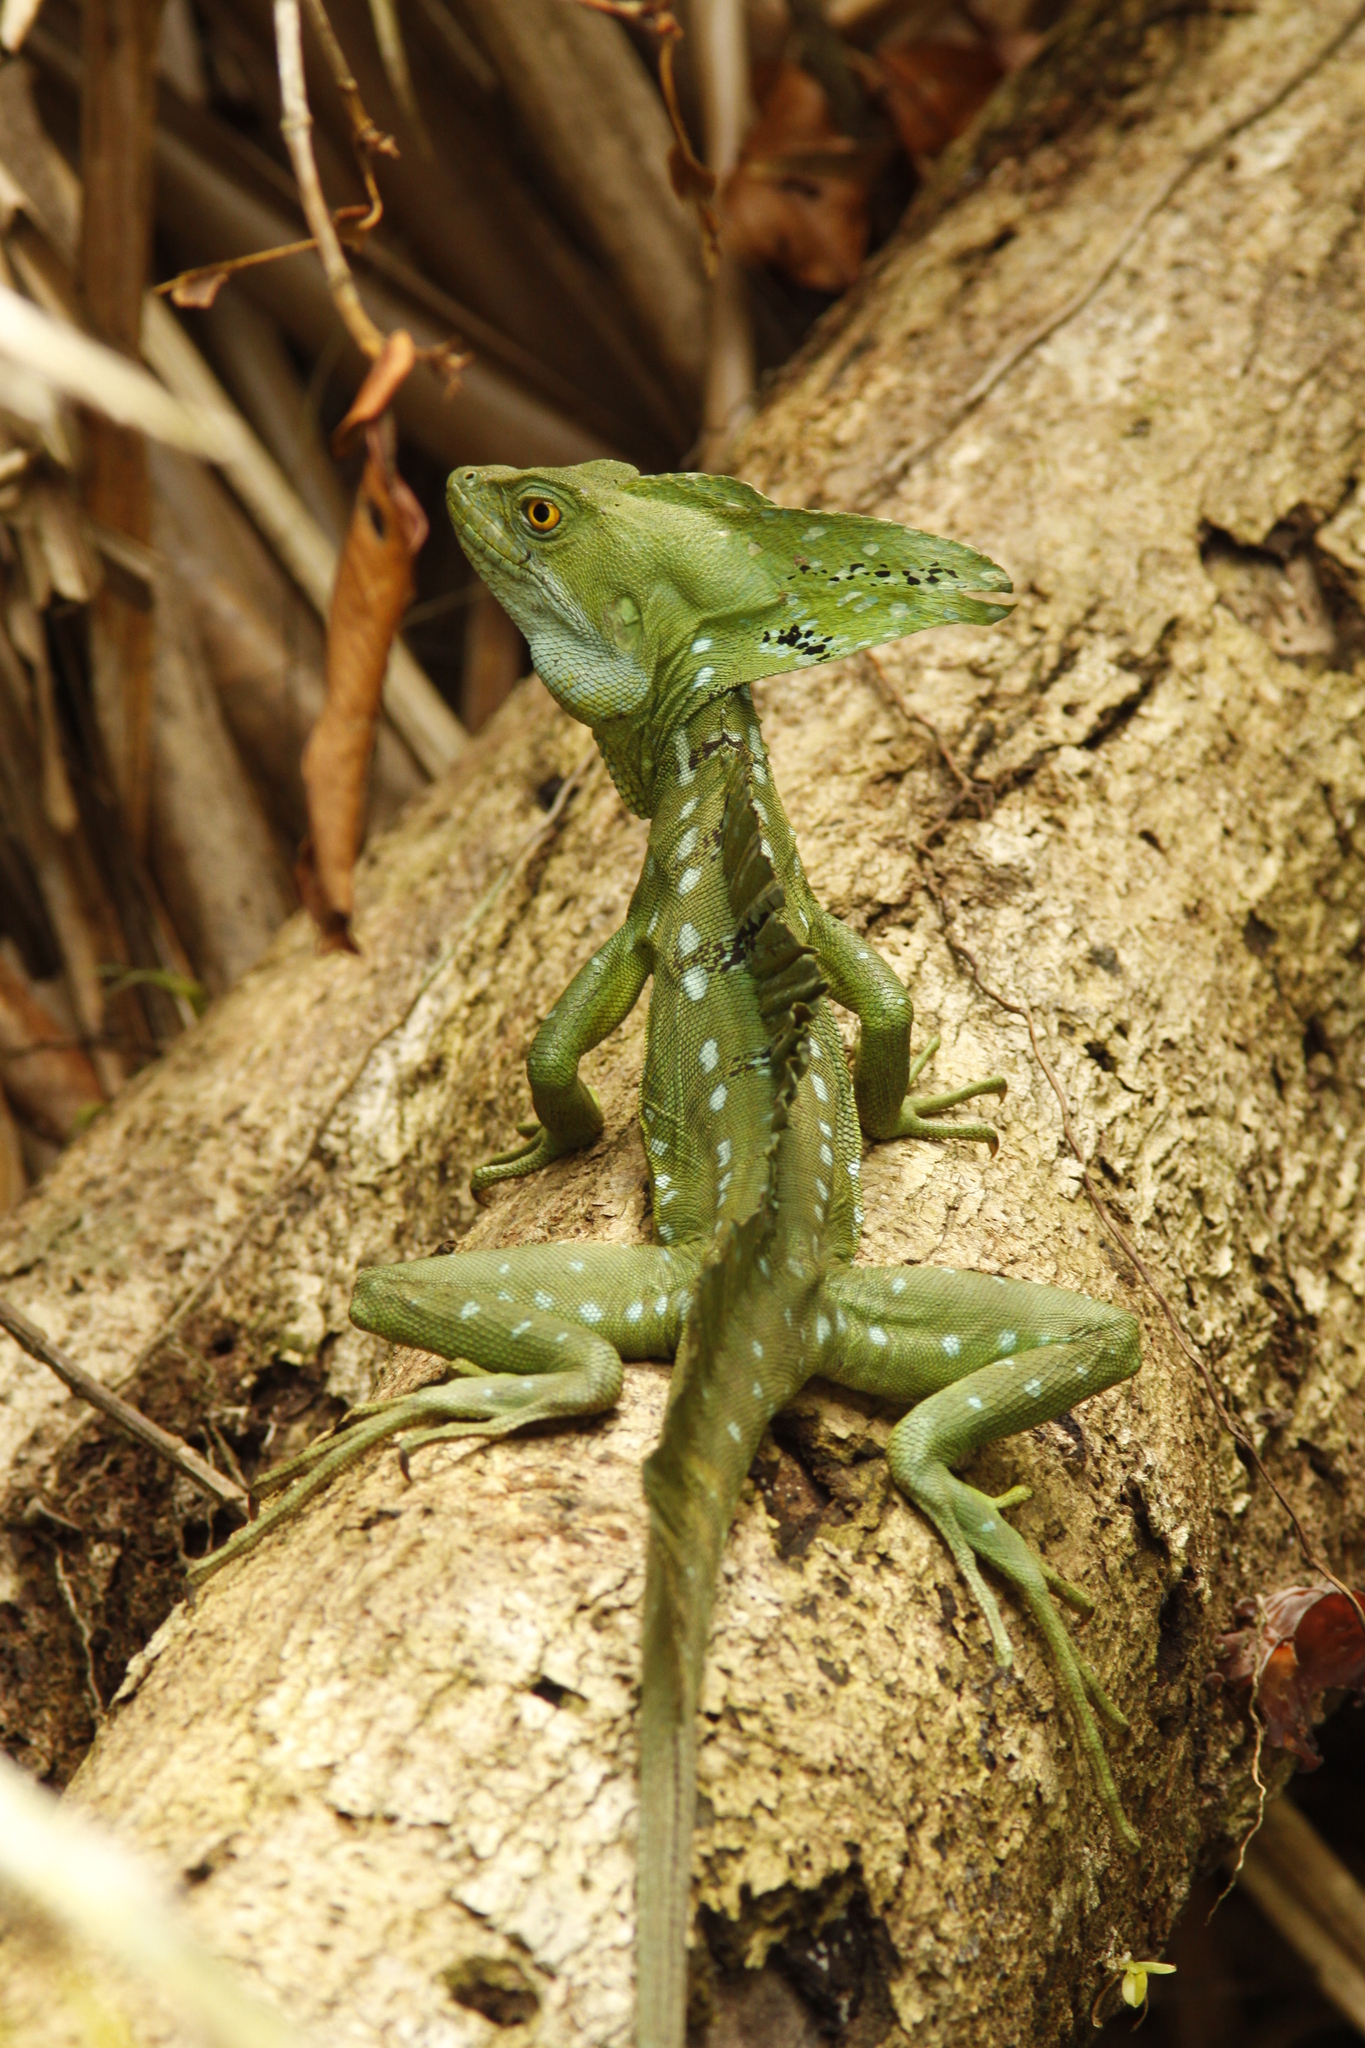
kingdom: Animalia
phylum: Chordata
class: Squamata
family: Corytophanidae
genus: Basiliscus
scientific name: Basiliscus plumifrons
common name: Green basilisk
